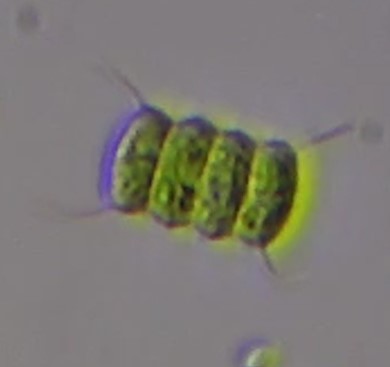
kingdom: Plantae
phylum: Chlorophyta
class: Chlorophyceae
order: Sphaeropleales
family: Scenedesmaceae
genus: Desmodesmus
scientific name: Desmodesmus communis
